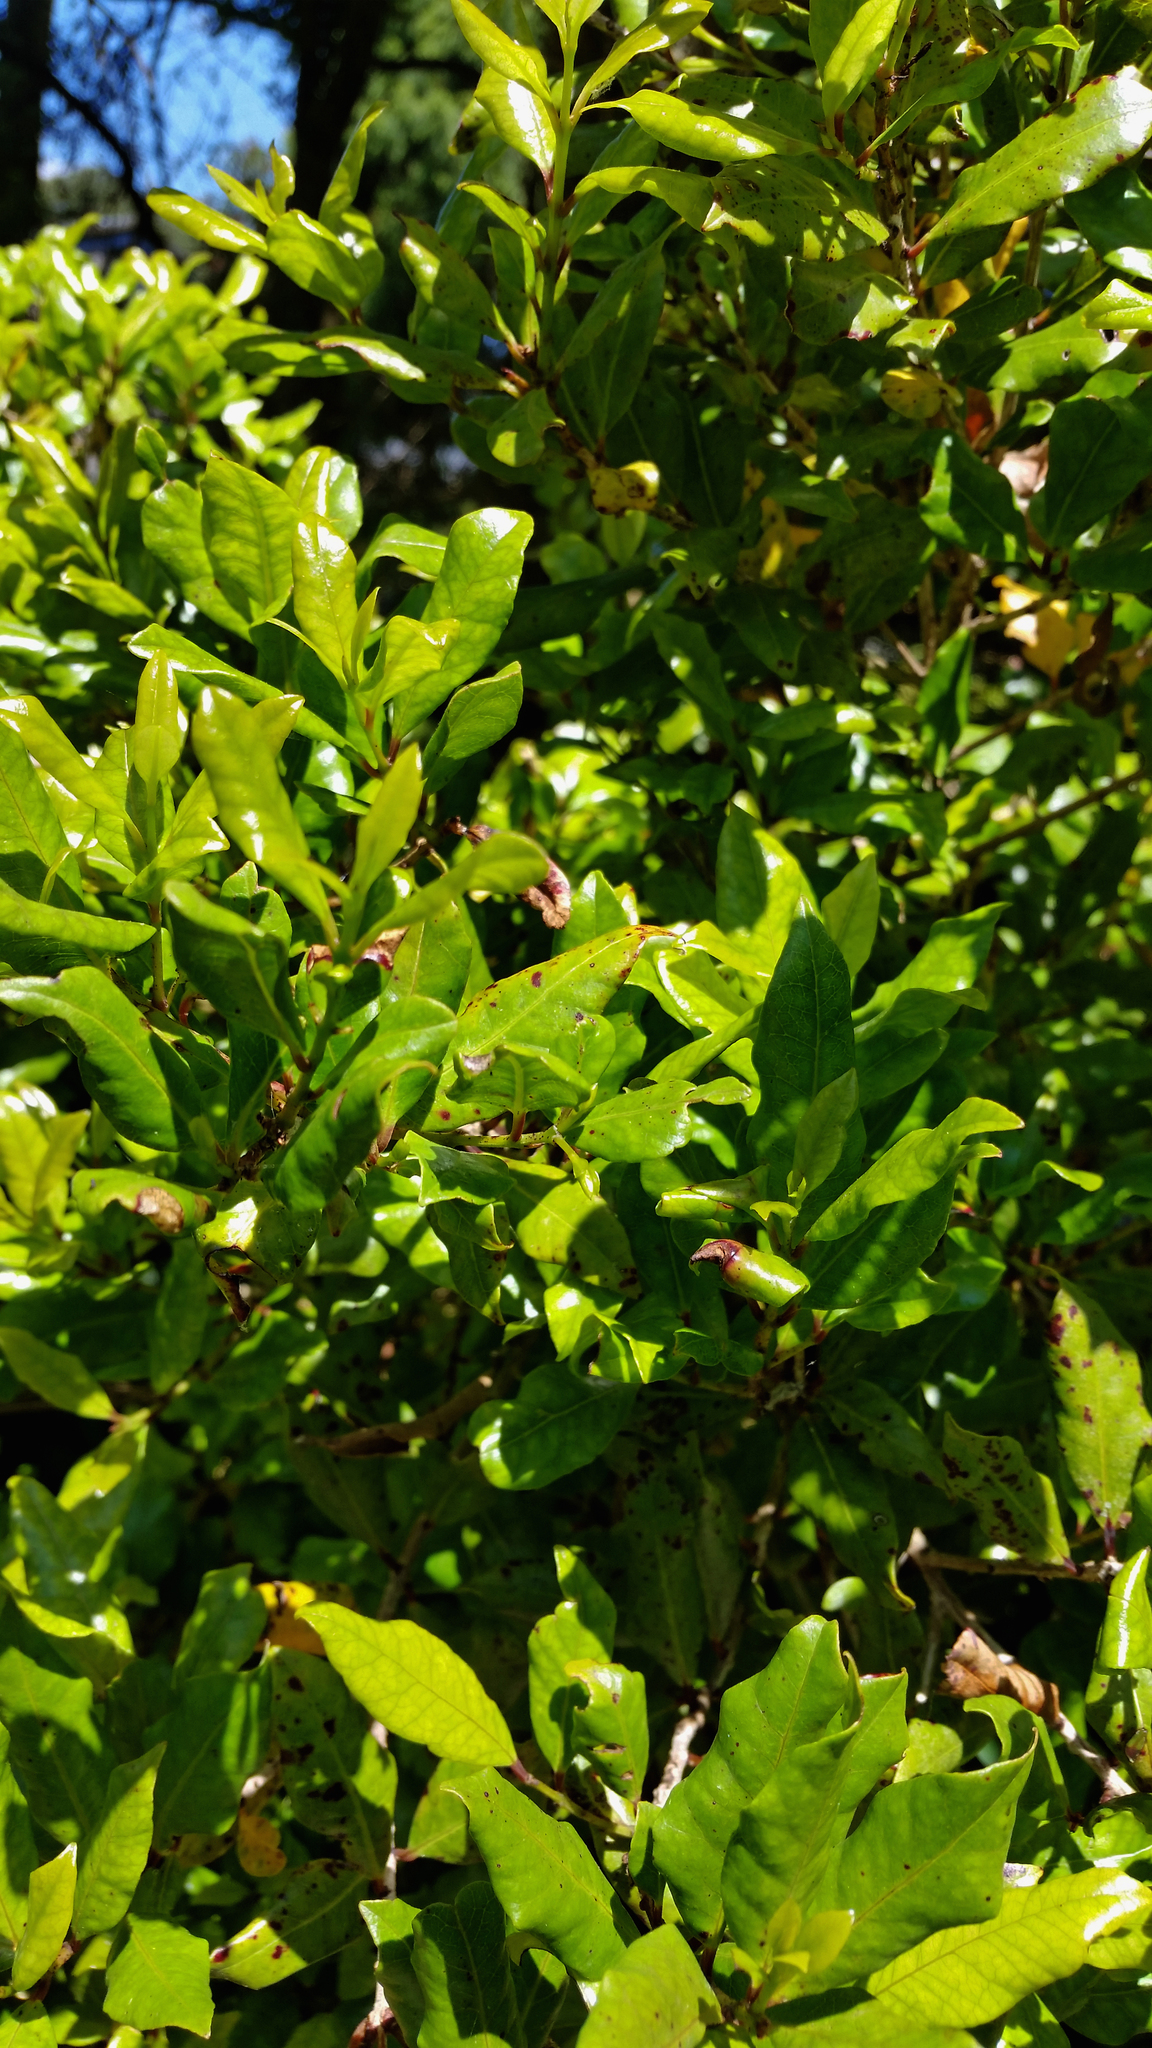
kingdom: Plantae
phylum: Tracheophyta
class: Magnoliopsida
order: Myrtales
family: Myrtaceae
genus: Syzygium
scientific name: Syzygium maire
